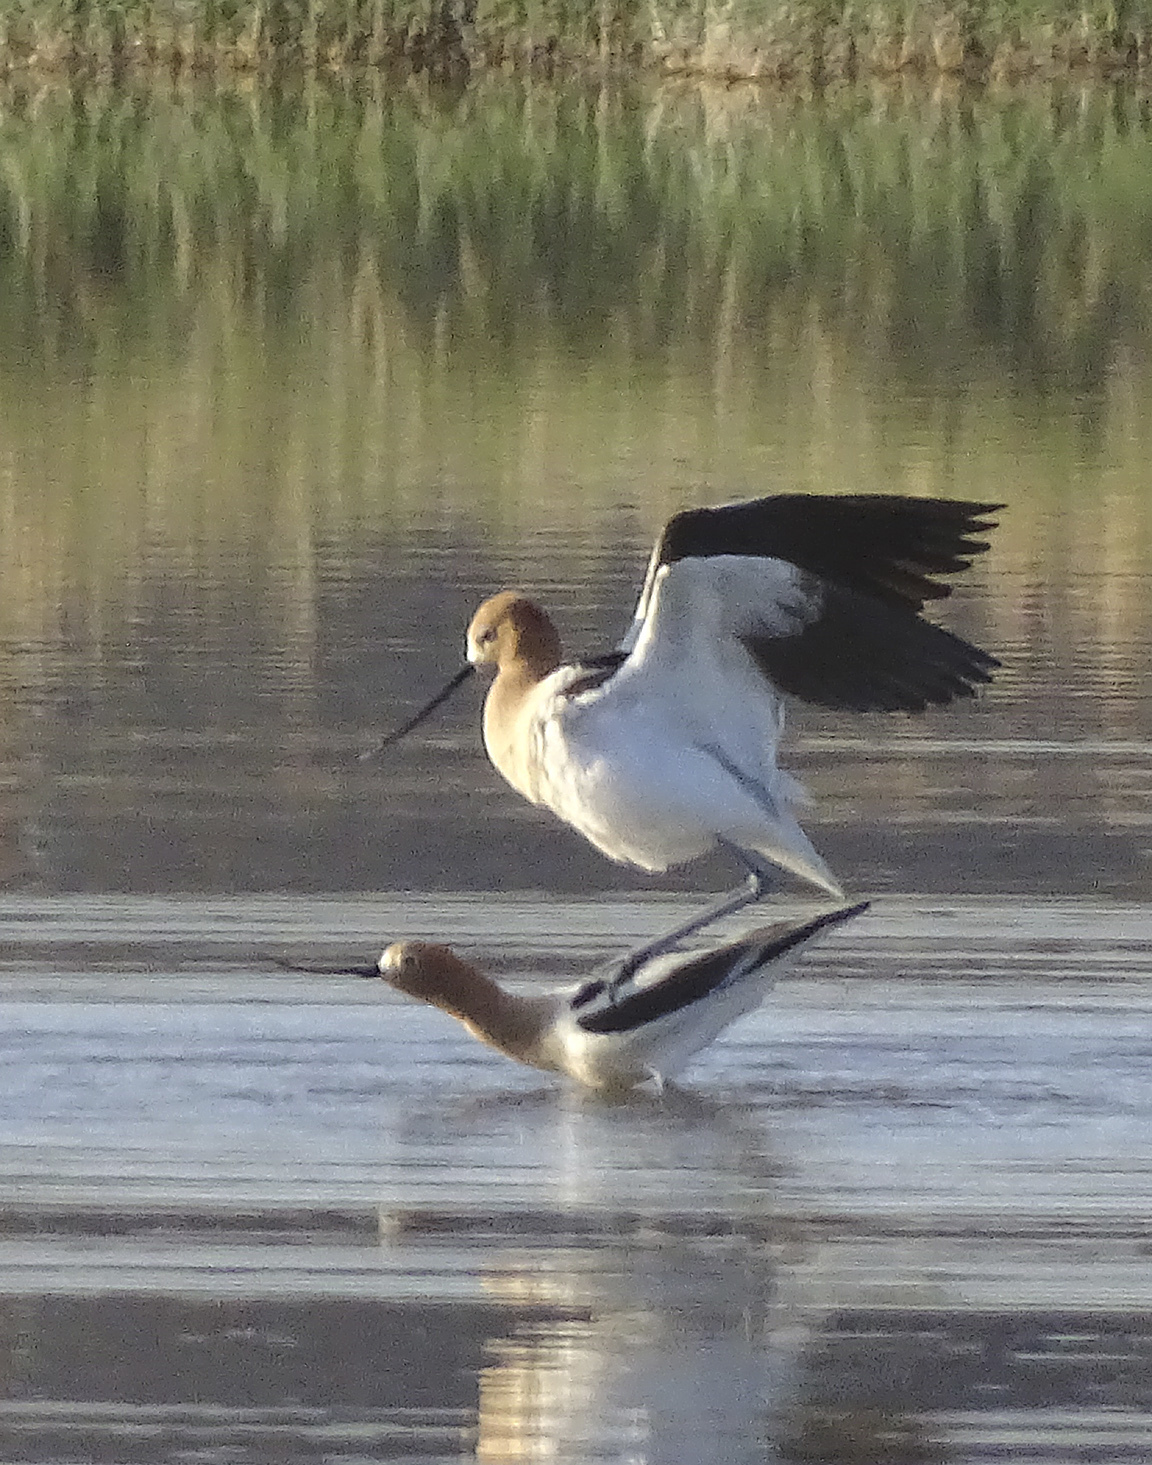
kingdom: Animalia
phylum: Chordata
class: Aves
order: Charadriiformes
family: Recurvirostridae
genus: Recurvirostra
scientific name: Recurvirostra americana
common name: American avocet
